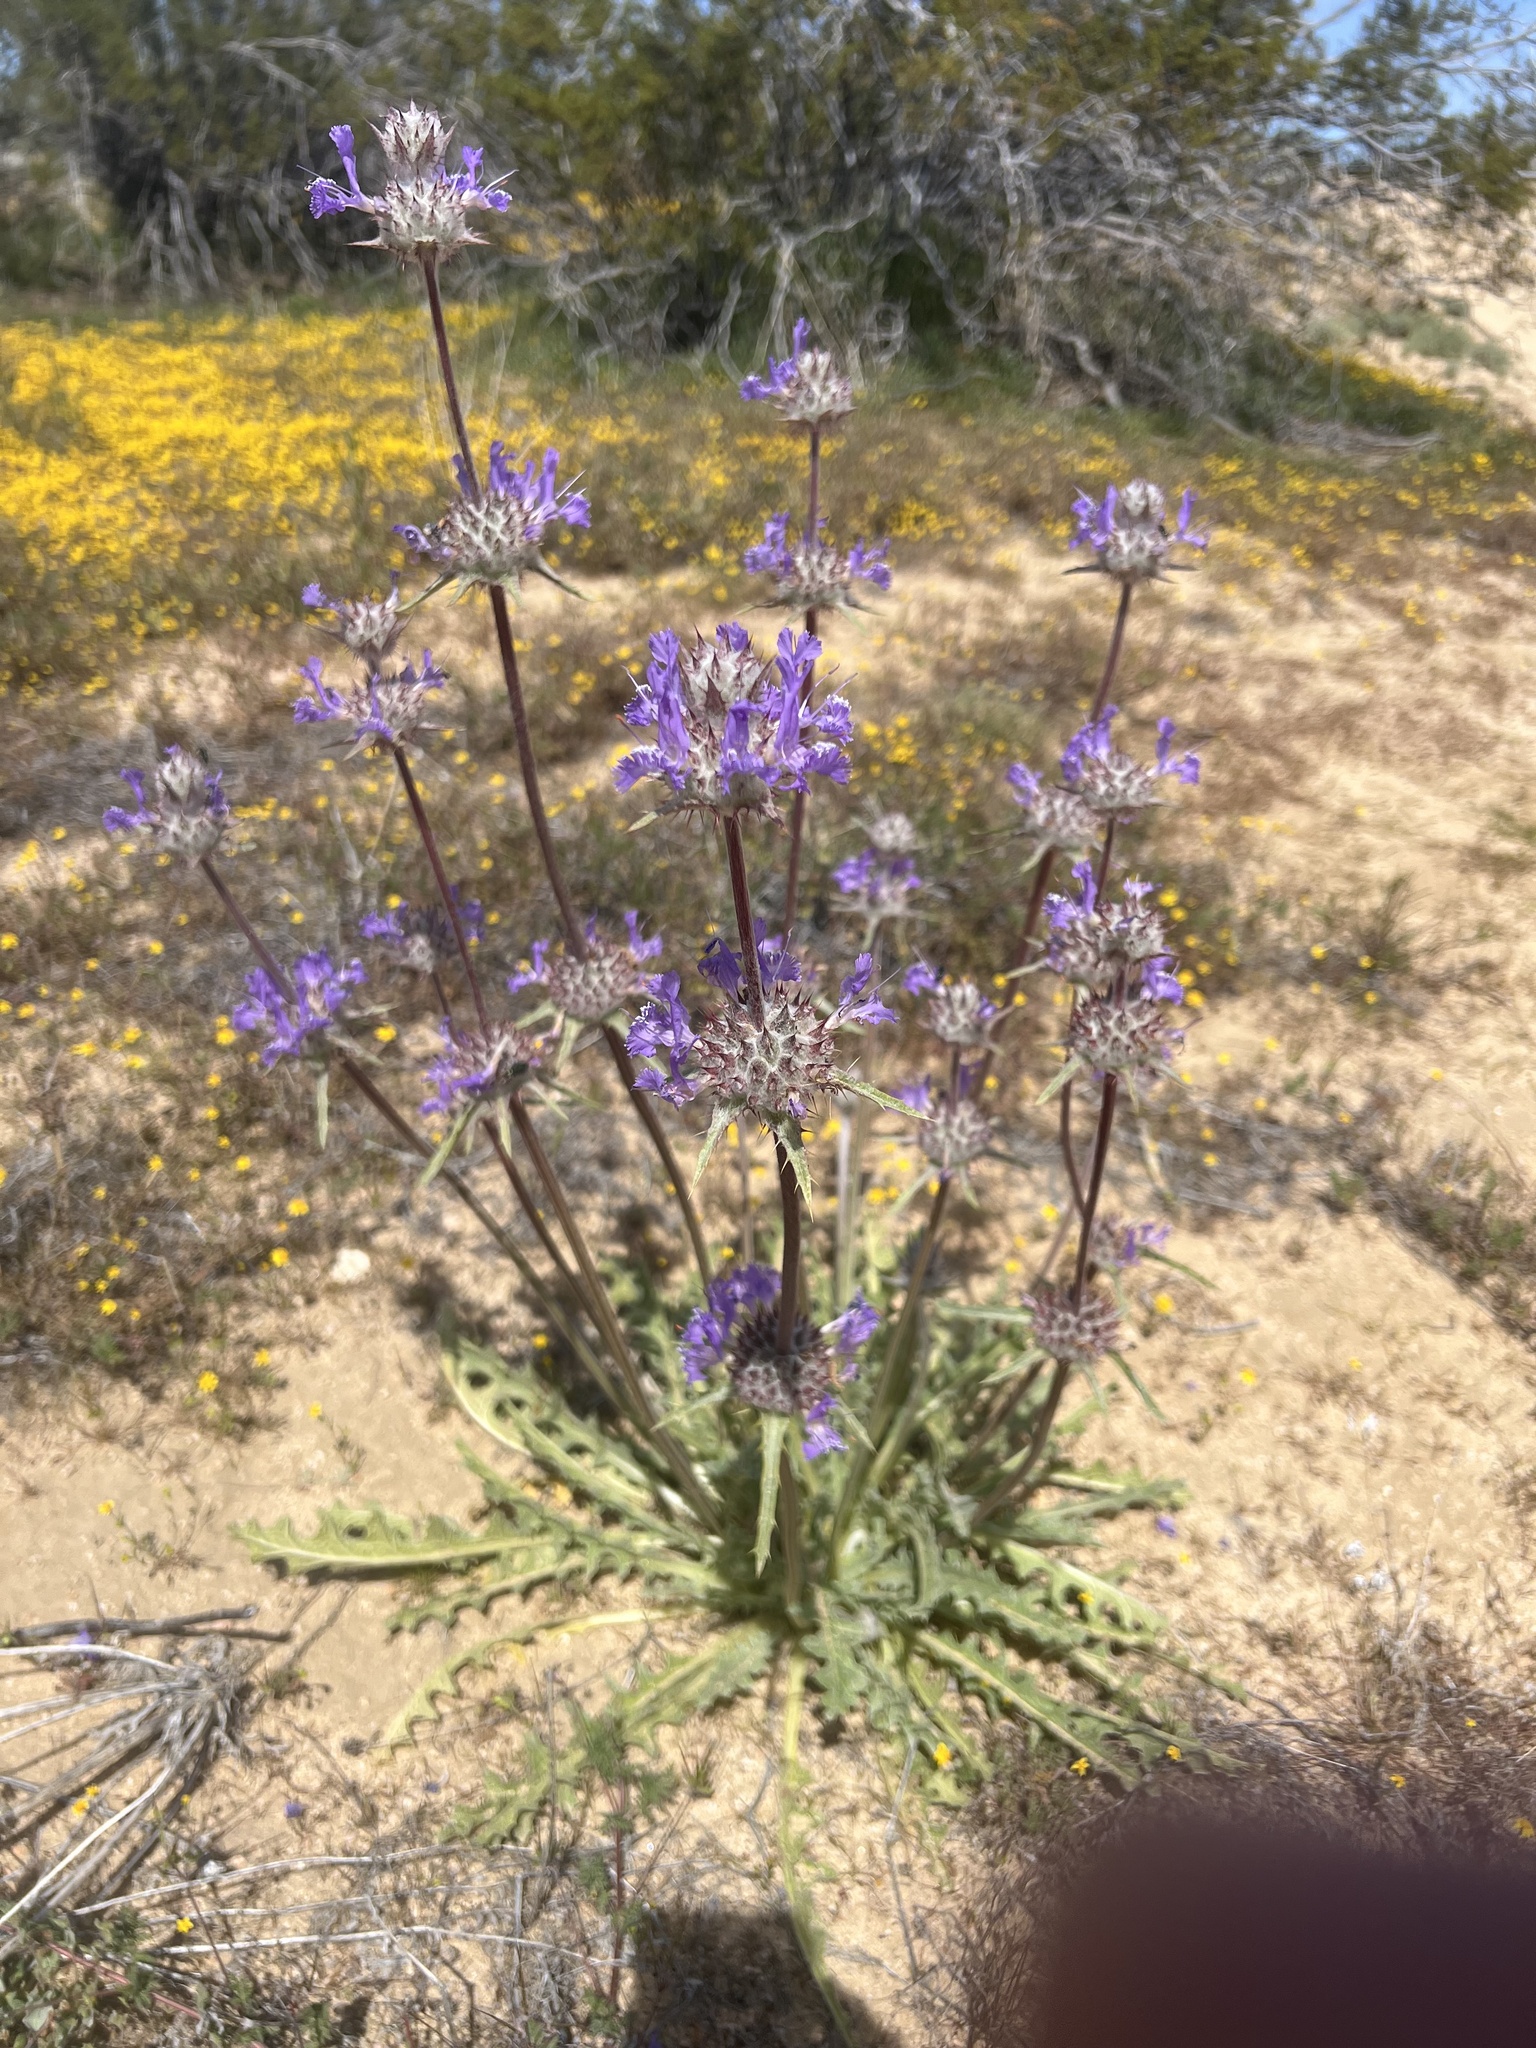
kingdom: Plantae
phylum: Tracheophyta
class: Magnoliopsida
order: Lamiales
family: Lamiaceae
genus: Salvia
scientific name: Salvia carduacea
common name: Thistle sage
